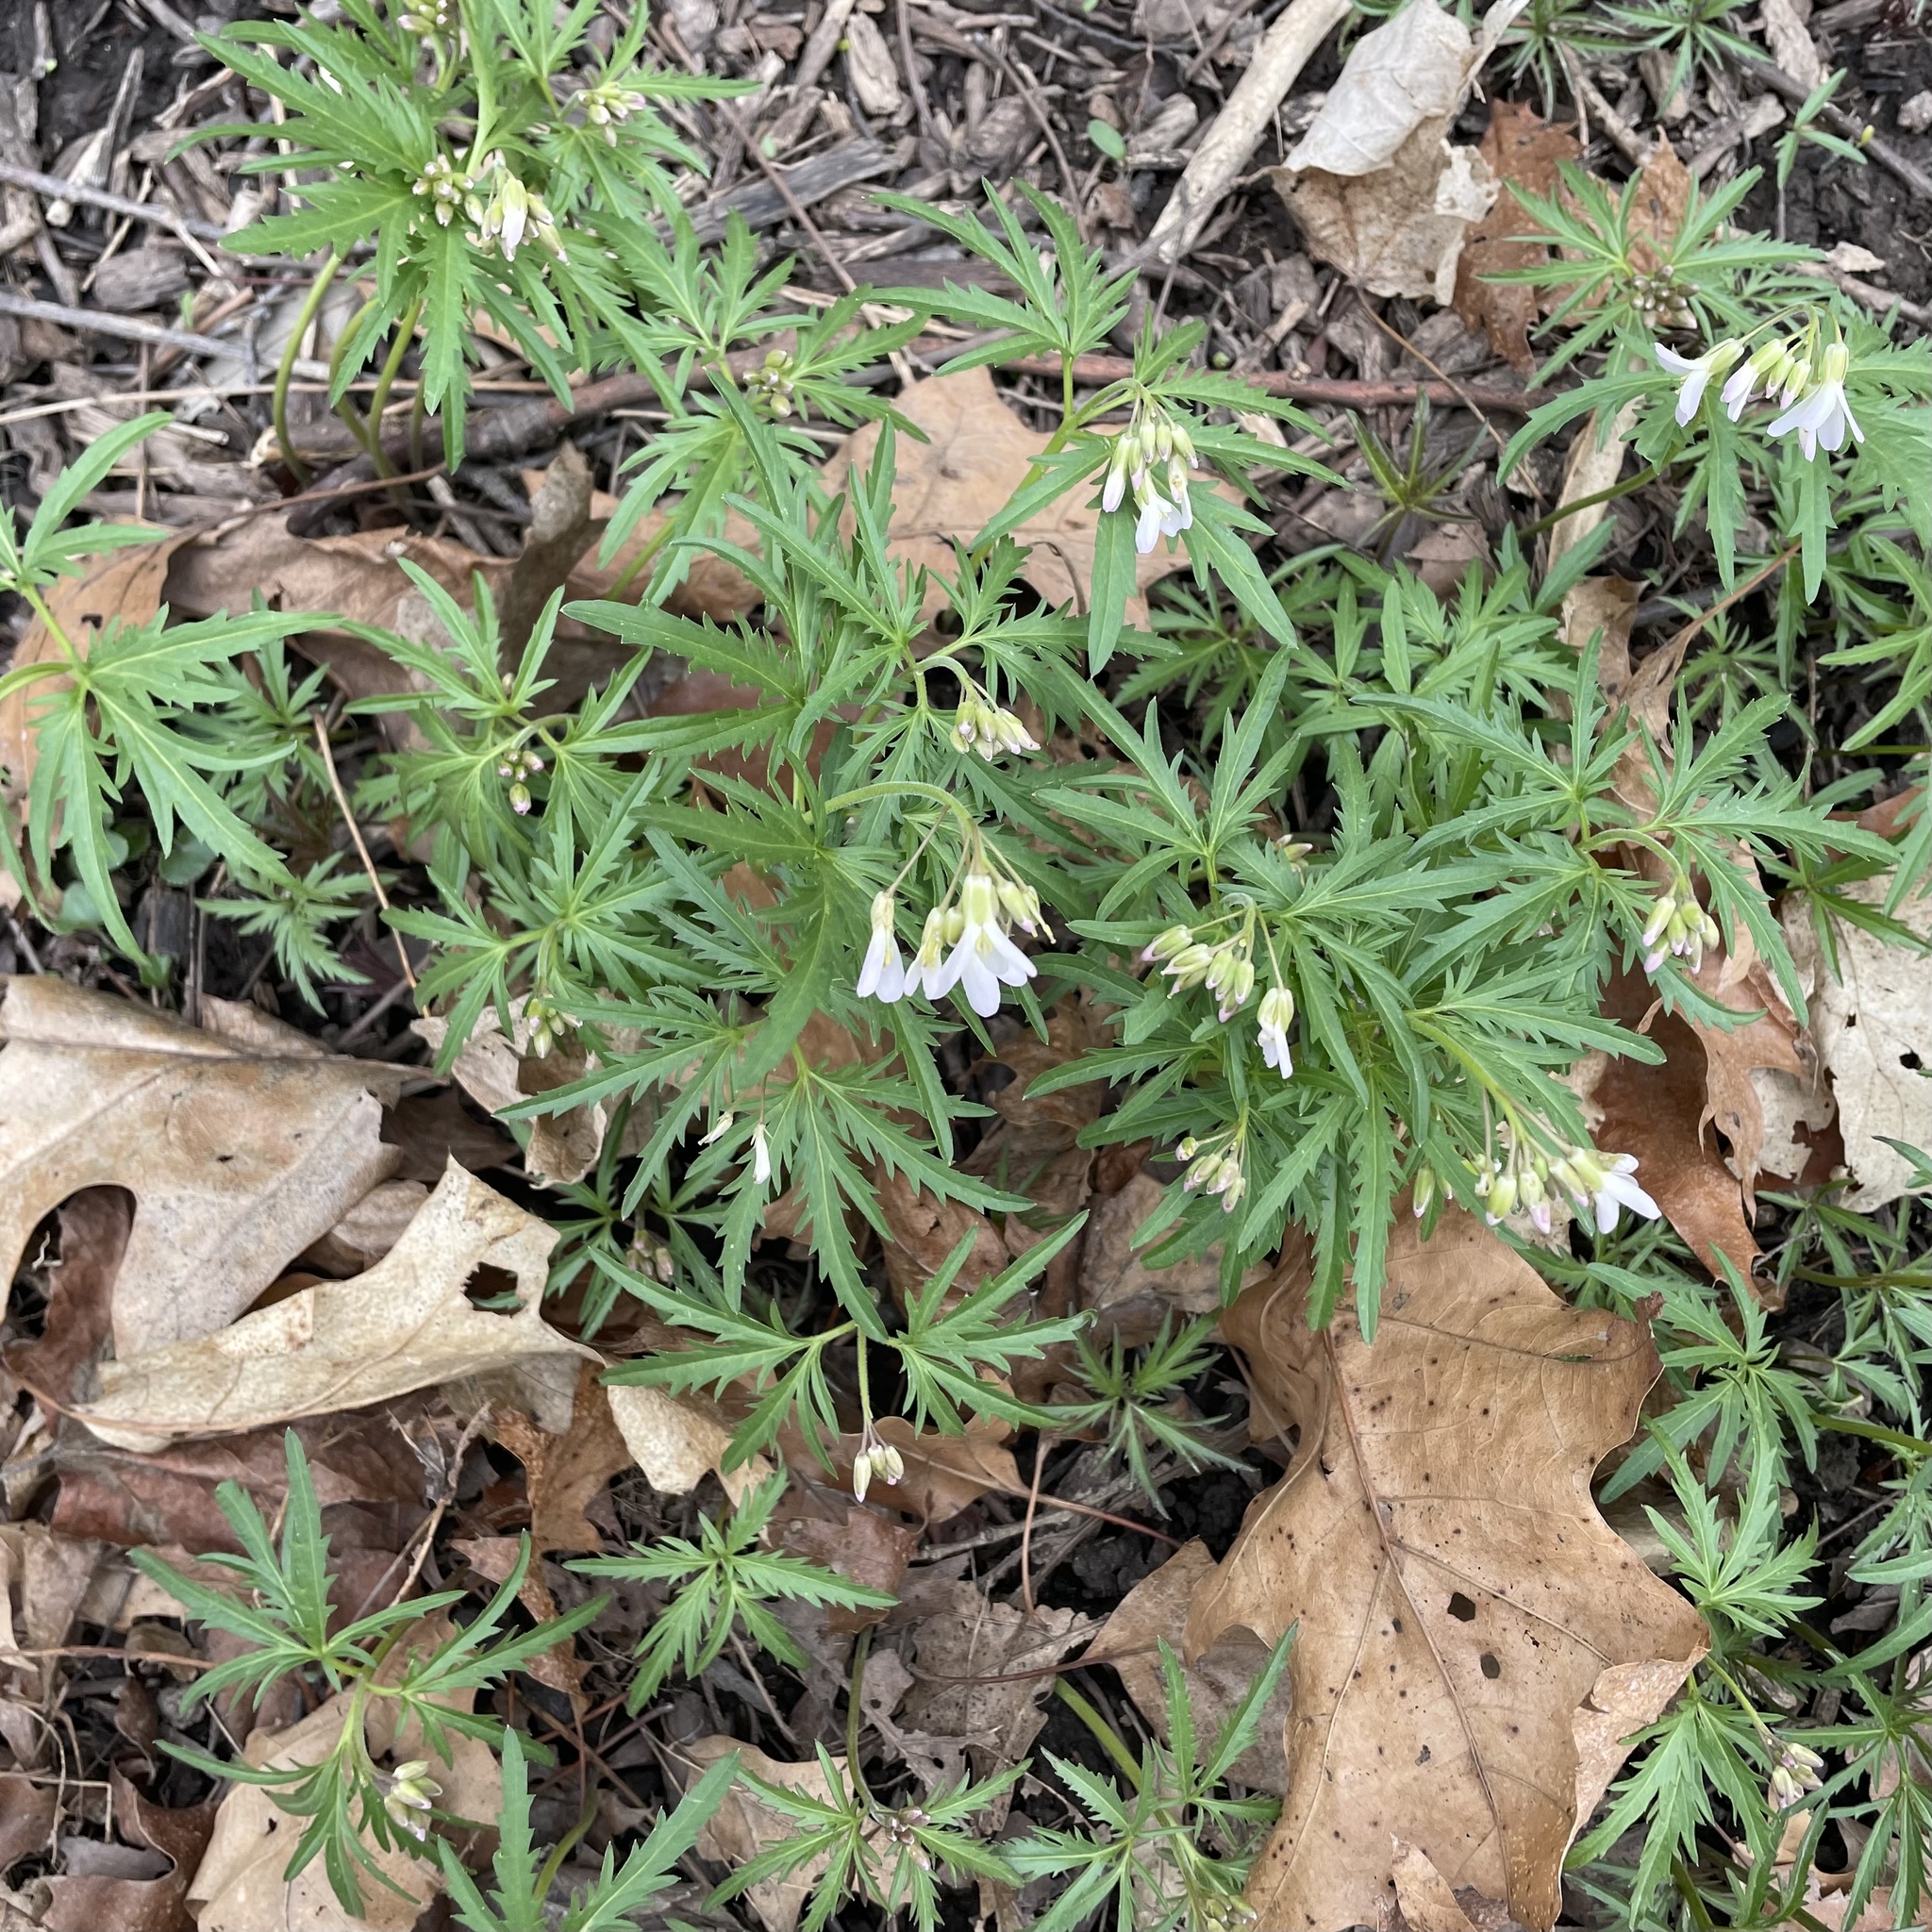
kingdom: Plantae
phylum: Tracheophyta
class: Magnoliopsida
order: Brassicales
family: Brassicaceae
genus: Cardamine
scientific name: Cardamine concatenata
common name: Cut-leaf toothcup
